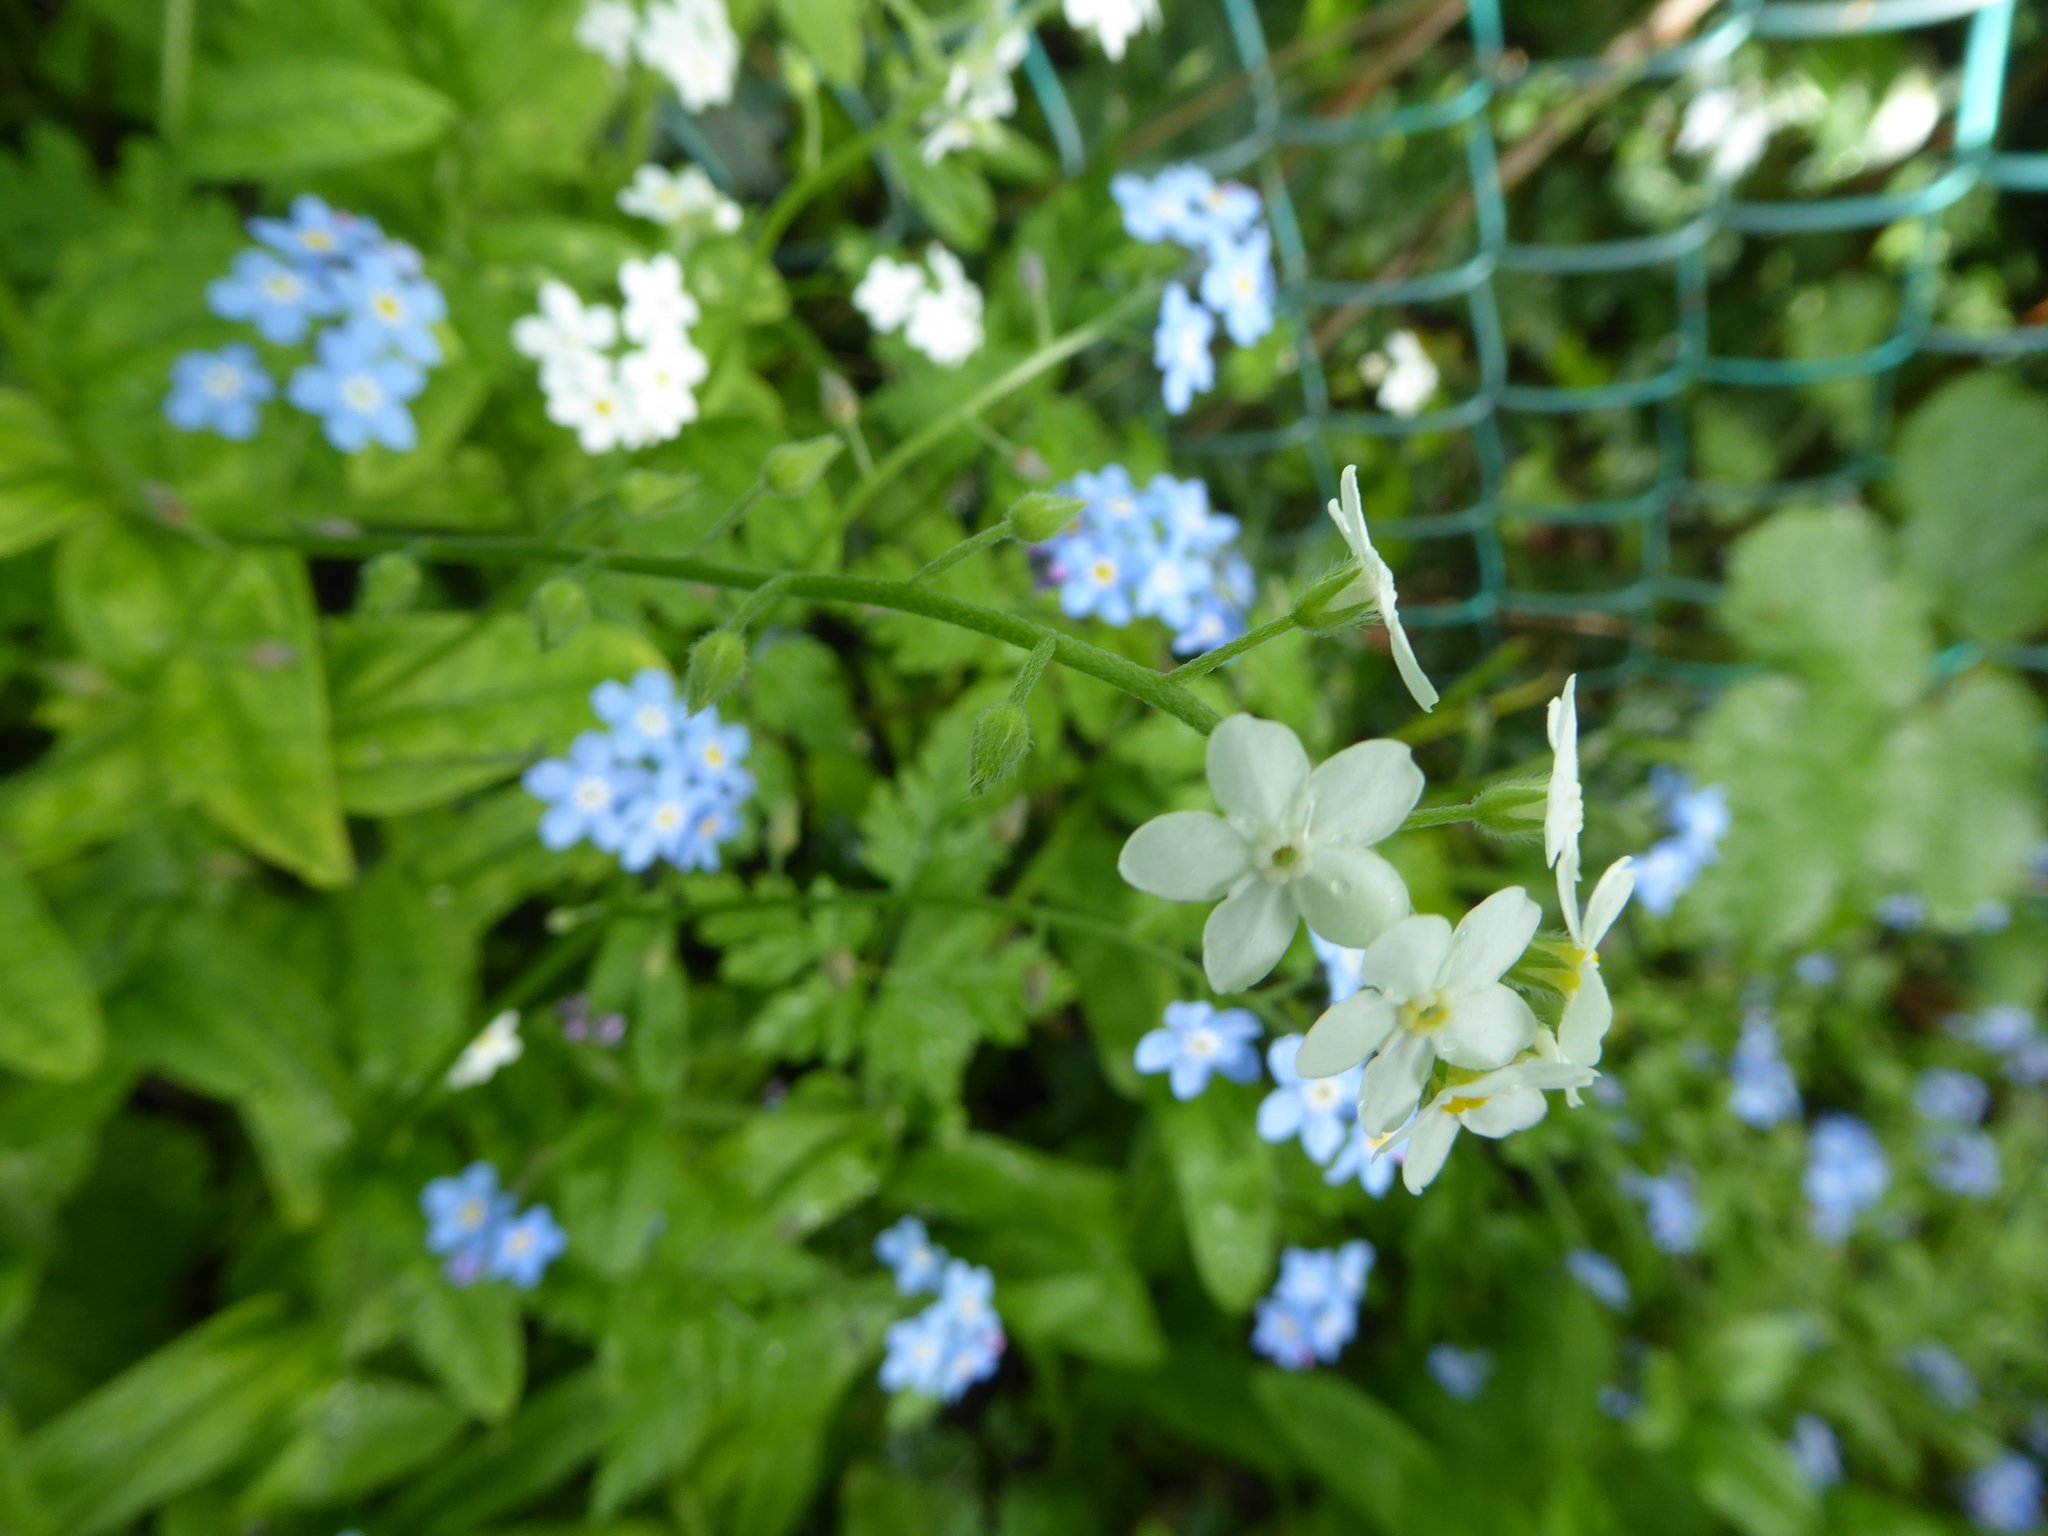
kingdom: Plantae
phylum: Tracheophyta
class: Magnoliopsida
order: Boraginales
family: Boraginaceae
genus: Myosotis
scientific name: Myosotis sylvatica
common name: Wood forget-me-not
